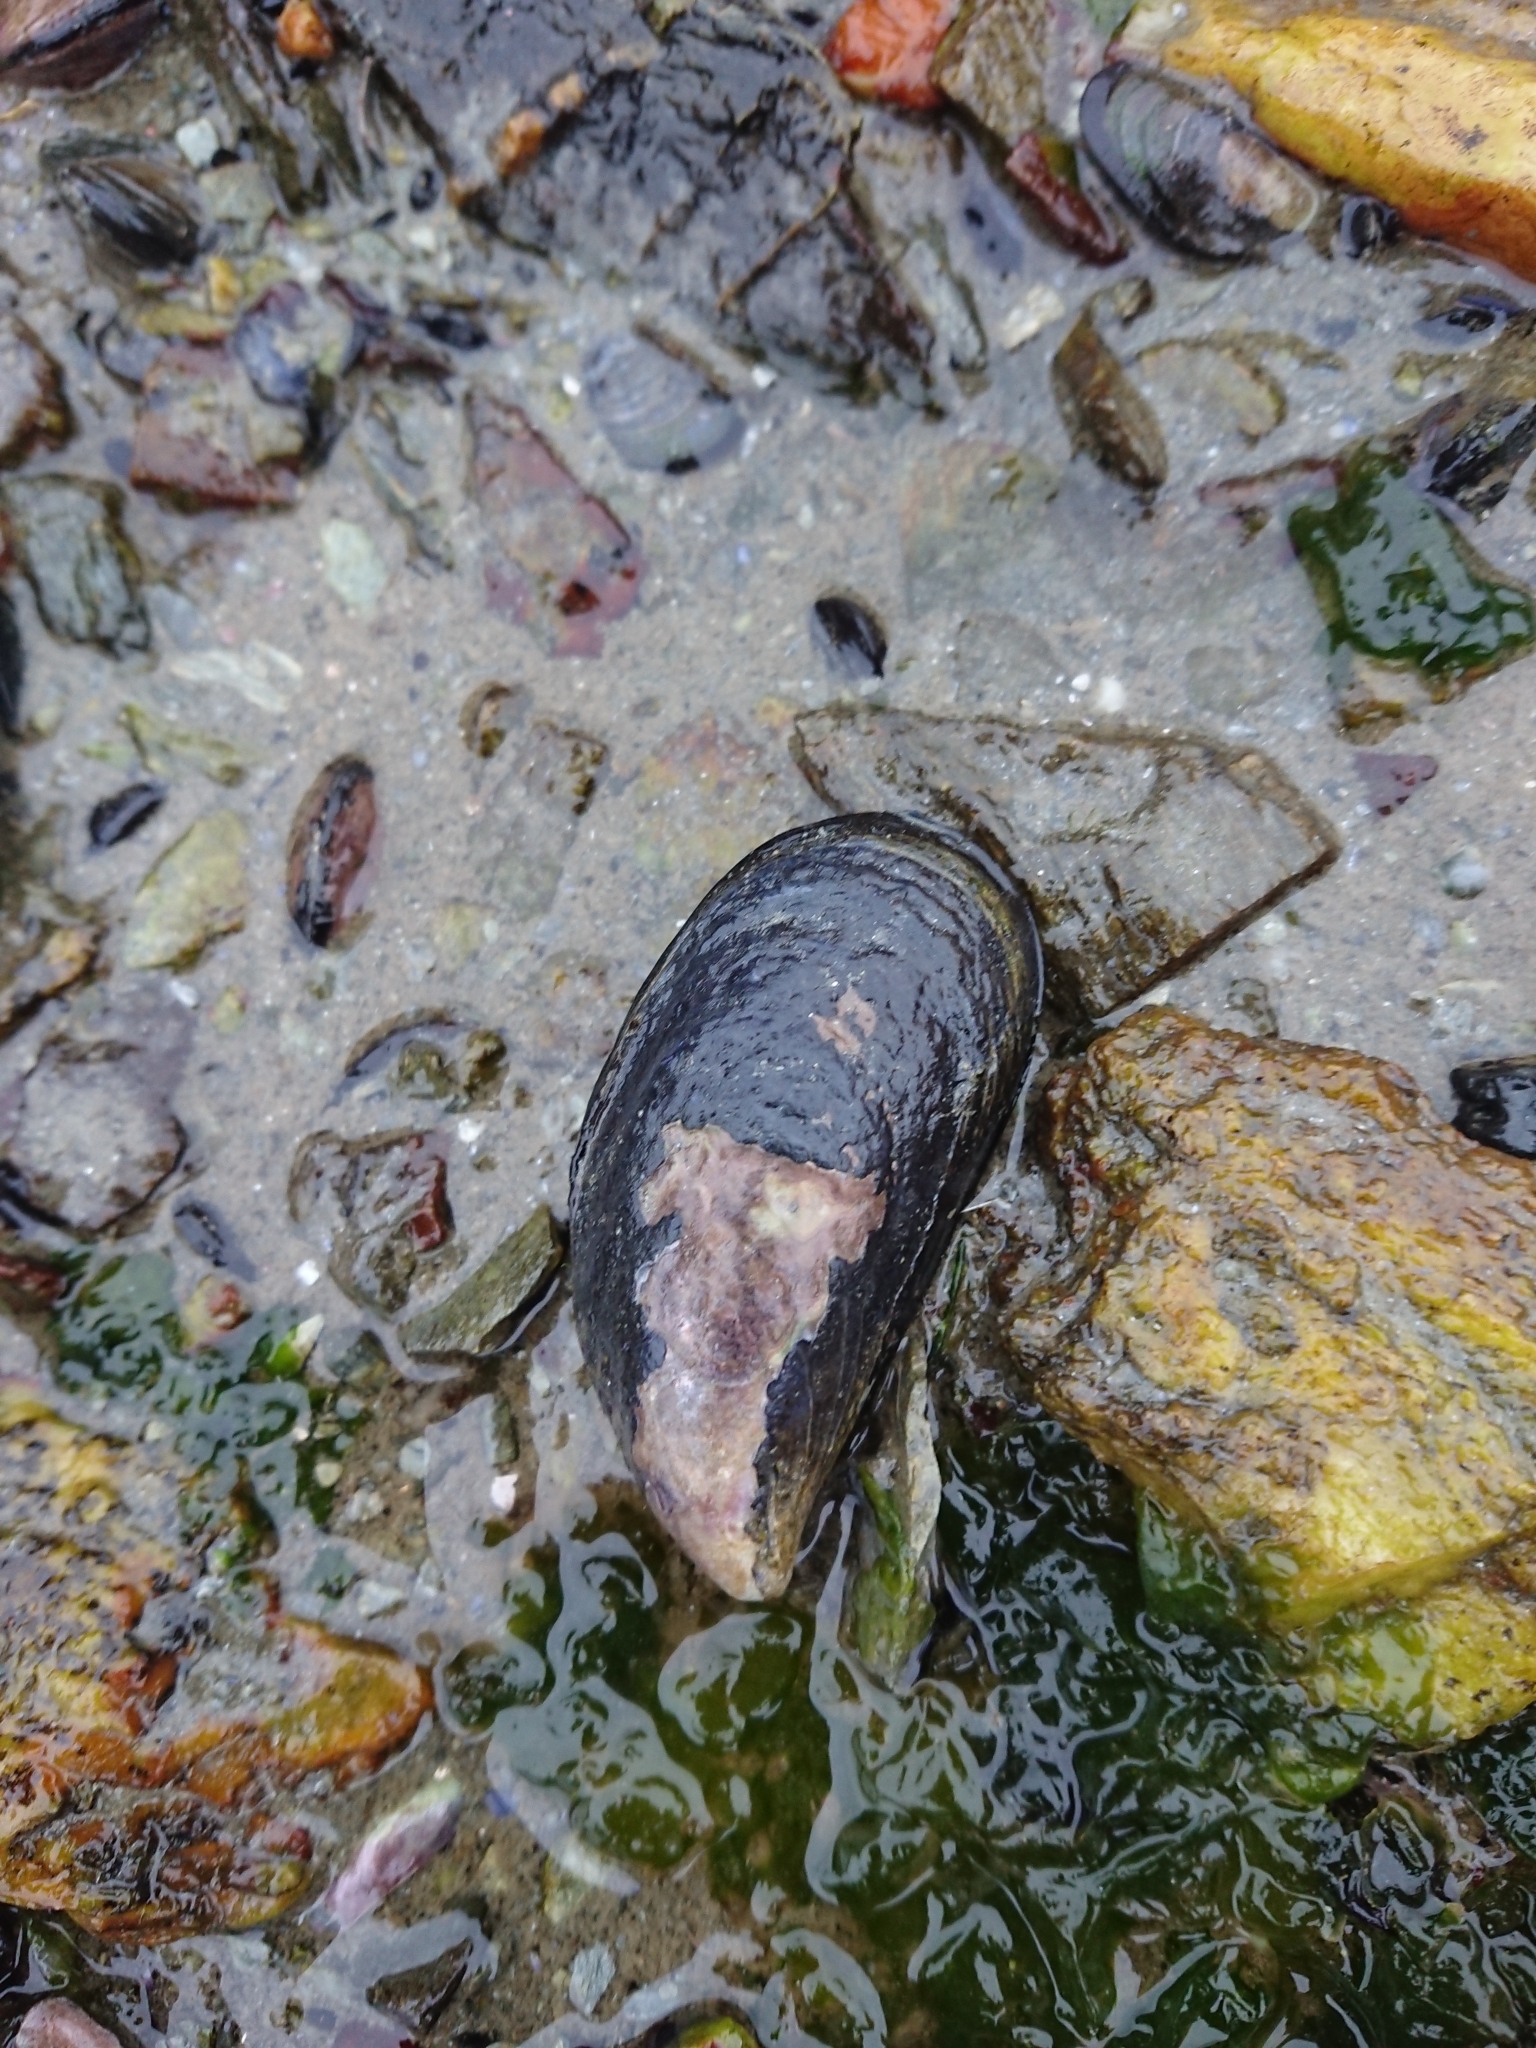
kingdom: Animalia
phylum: Mollusca
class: Bivalvia
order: Mytilida
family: Mytilidae
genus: Mytilus
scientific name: Mytilus chilensis
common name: Chilean mussel
